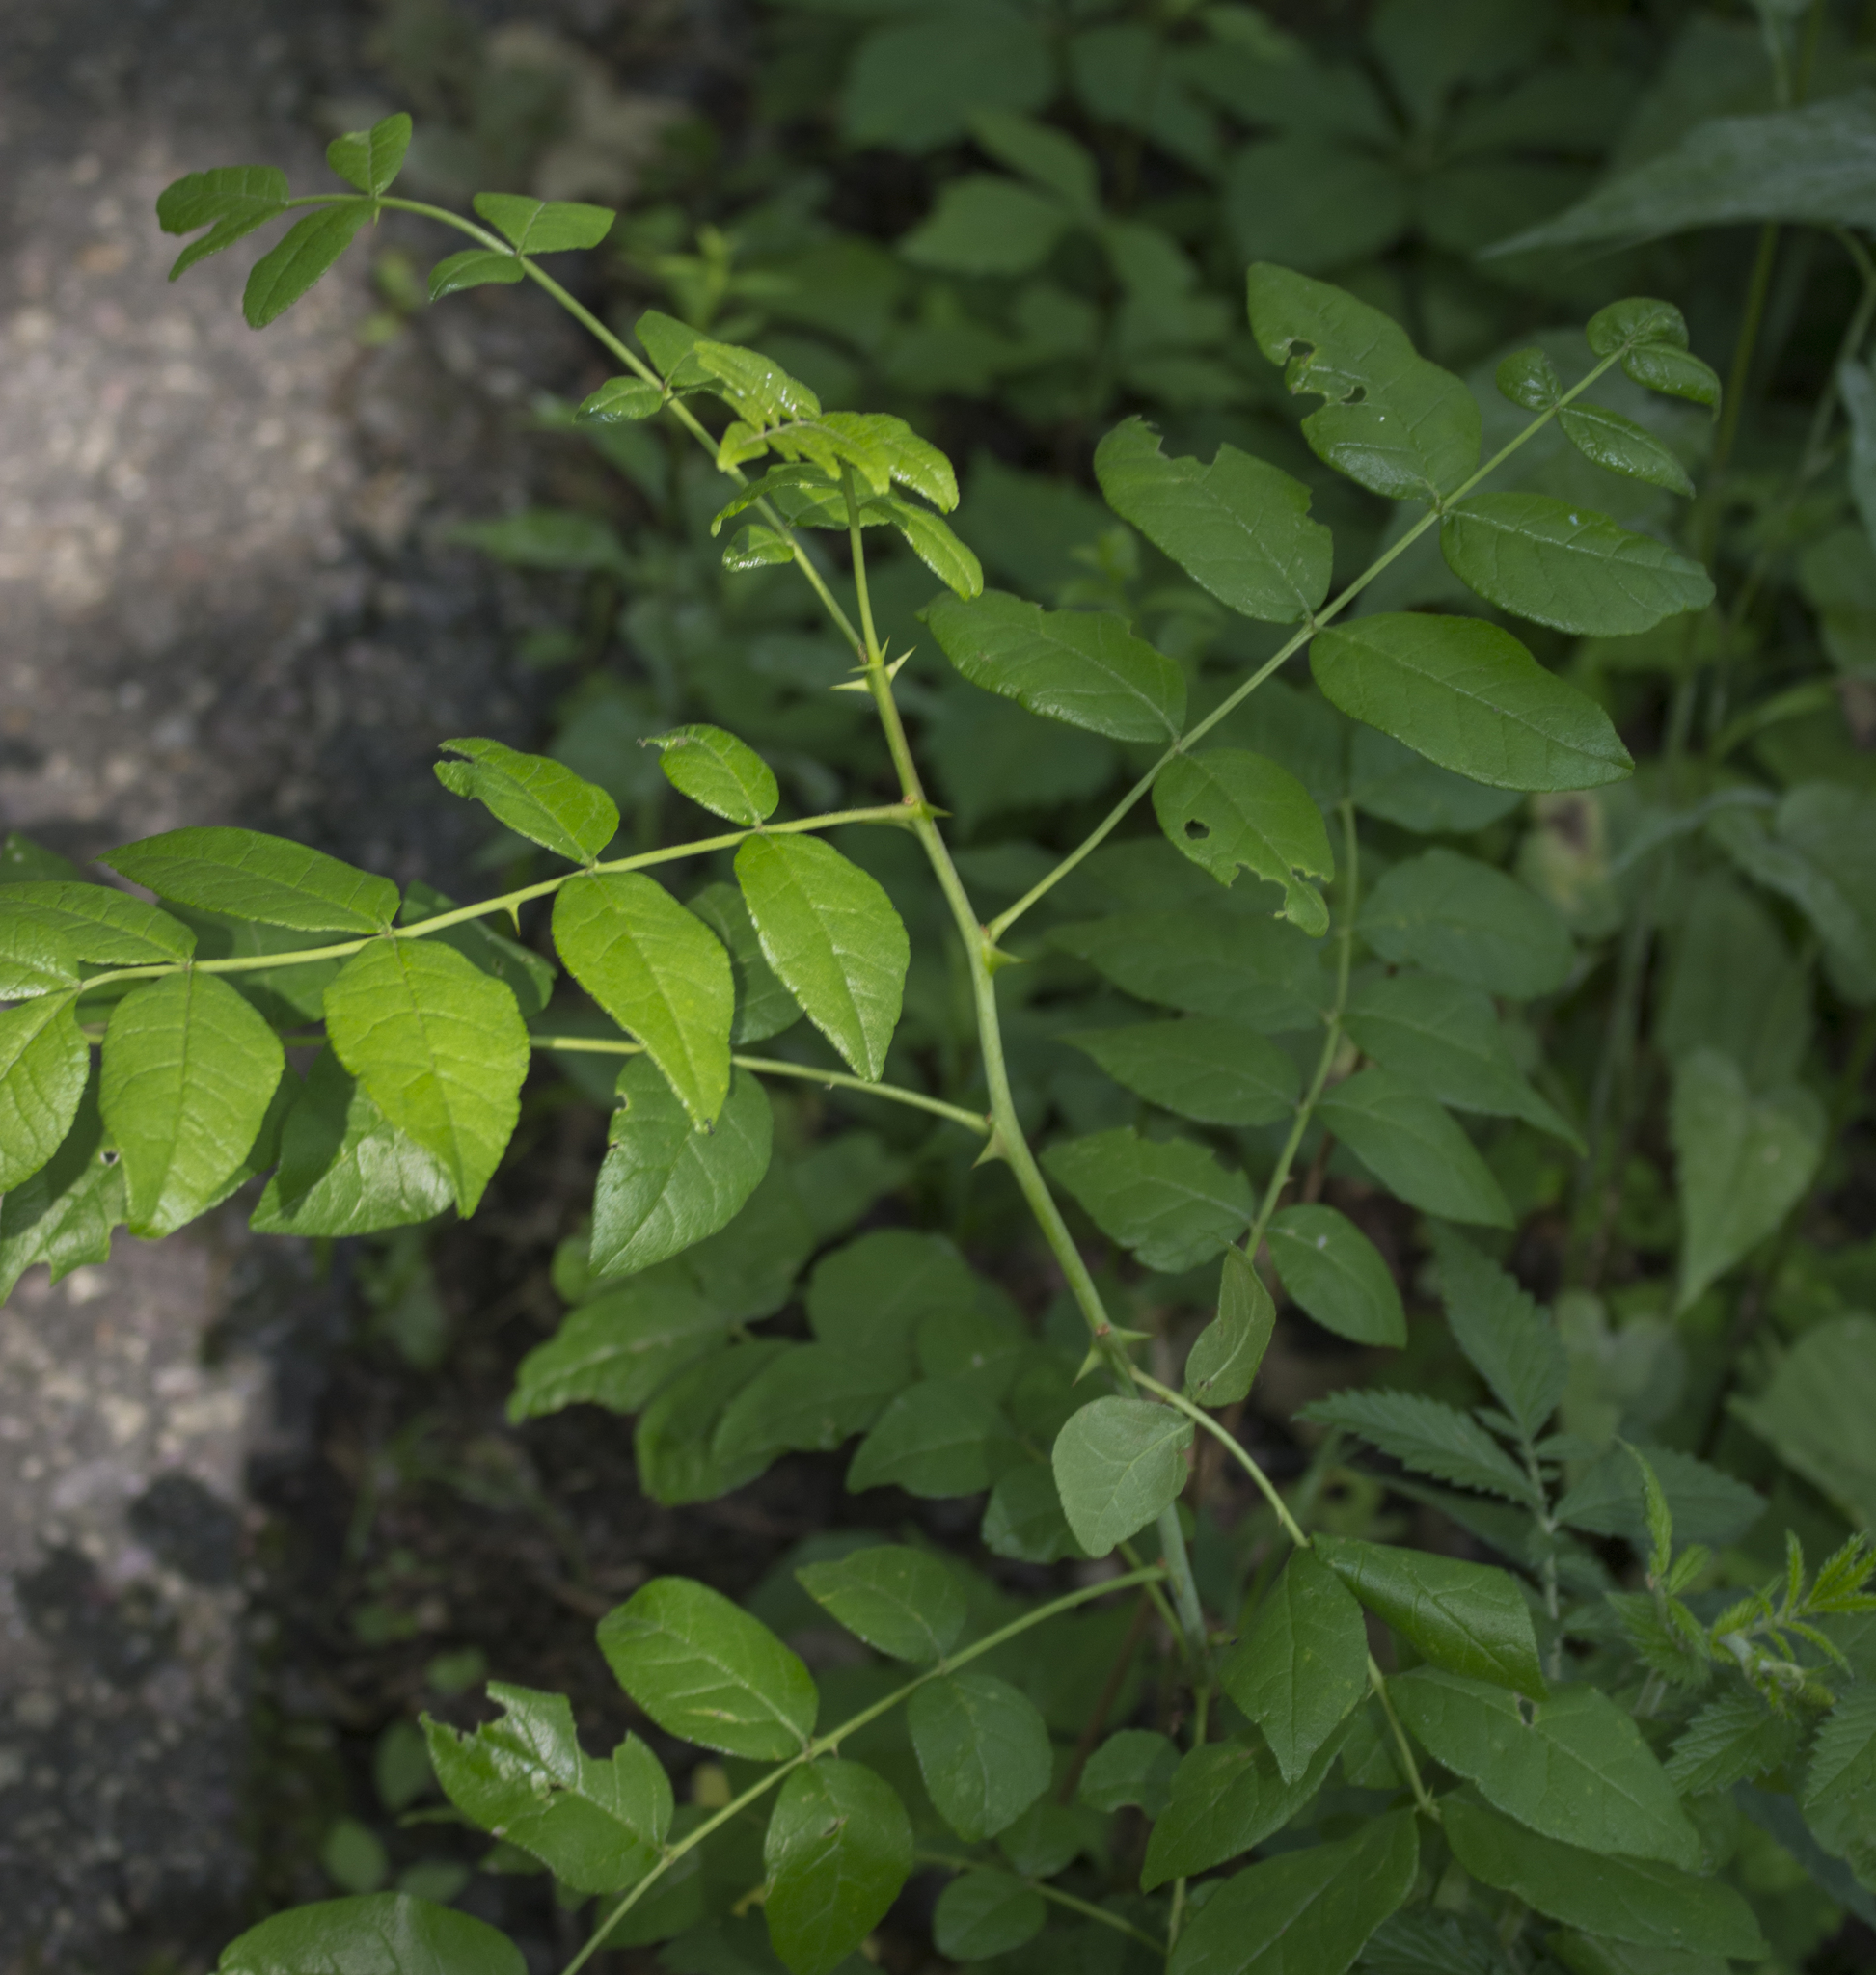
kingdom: Plantae
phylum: Tracheophyta
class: Magnoliopsida
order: Sapindales
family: Rutaceae
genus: Zanthoxylum
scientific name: Zanthoxylum americanum
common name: Northern prickly-ash
